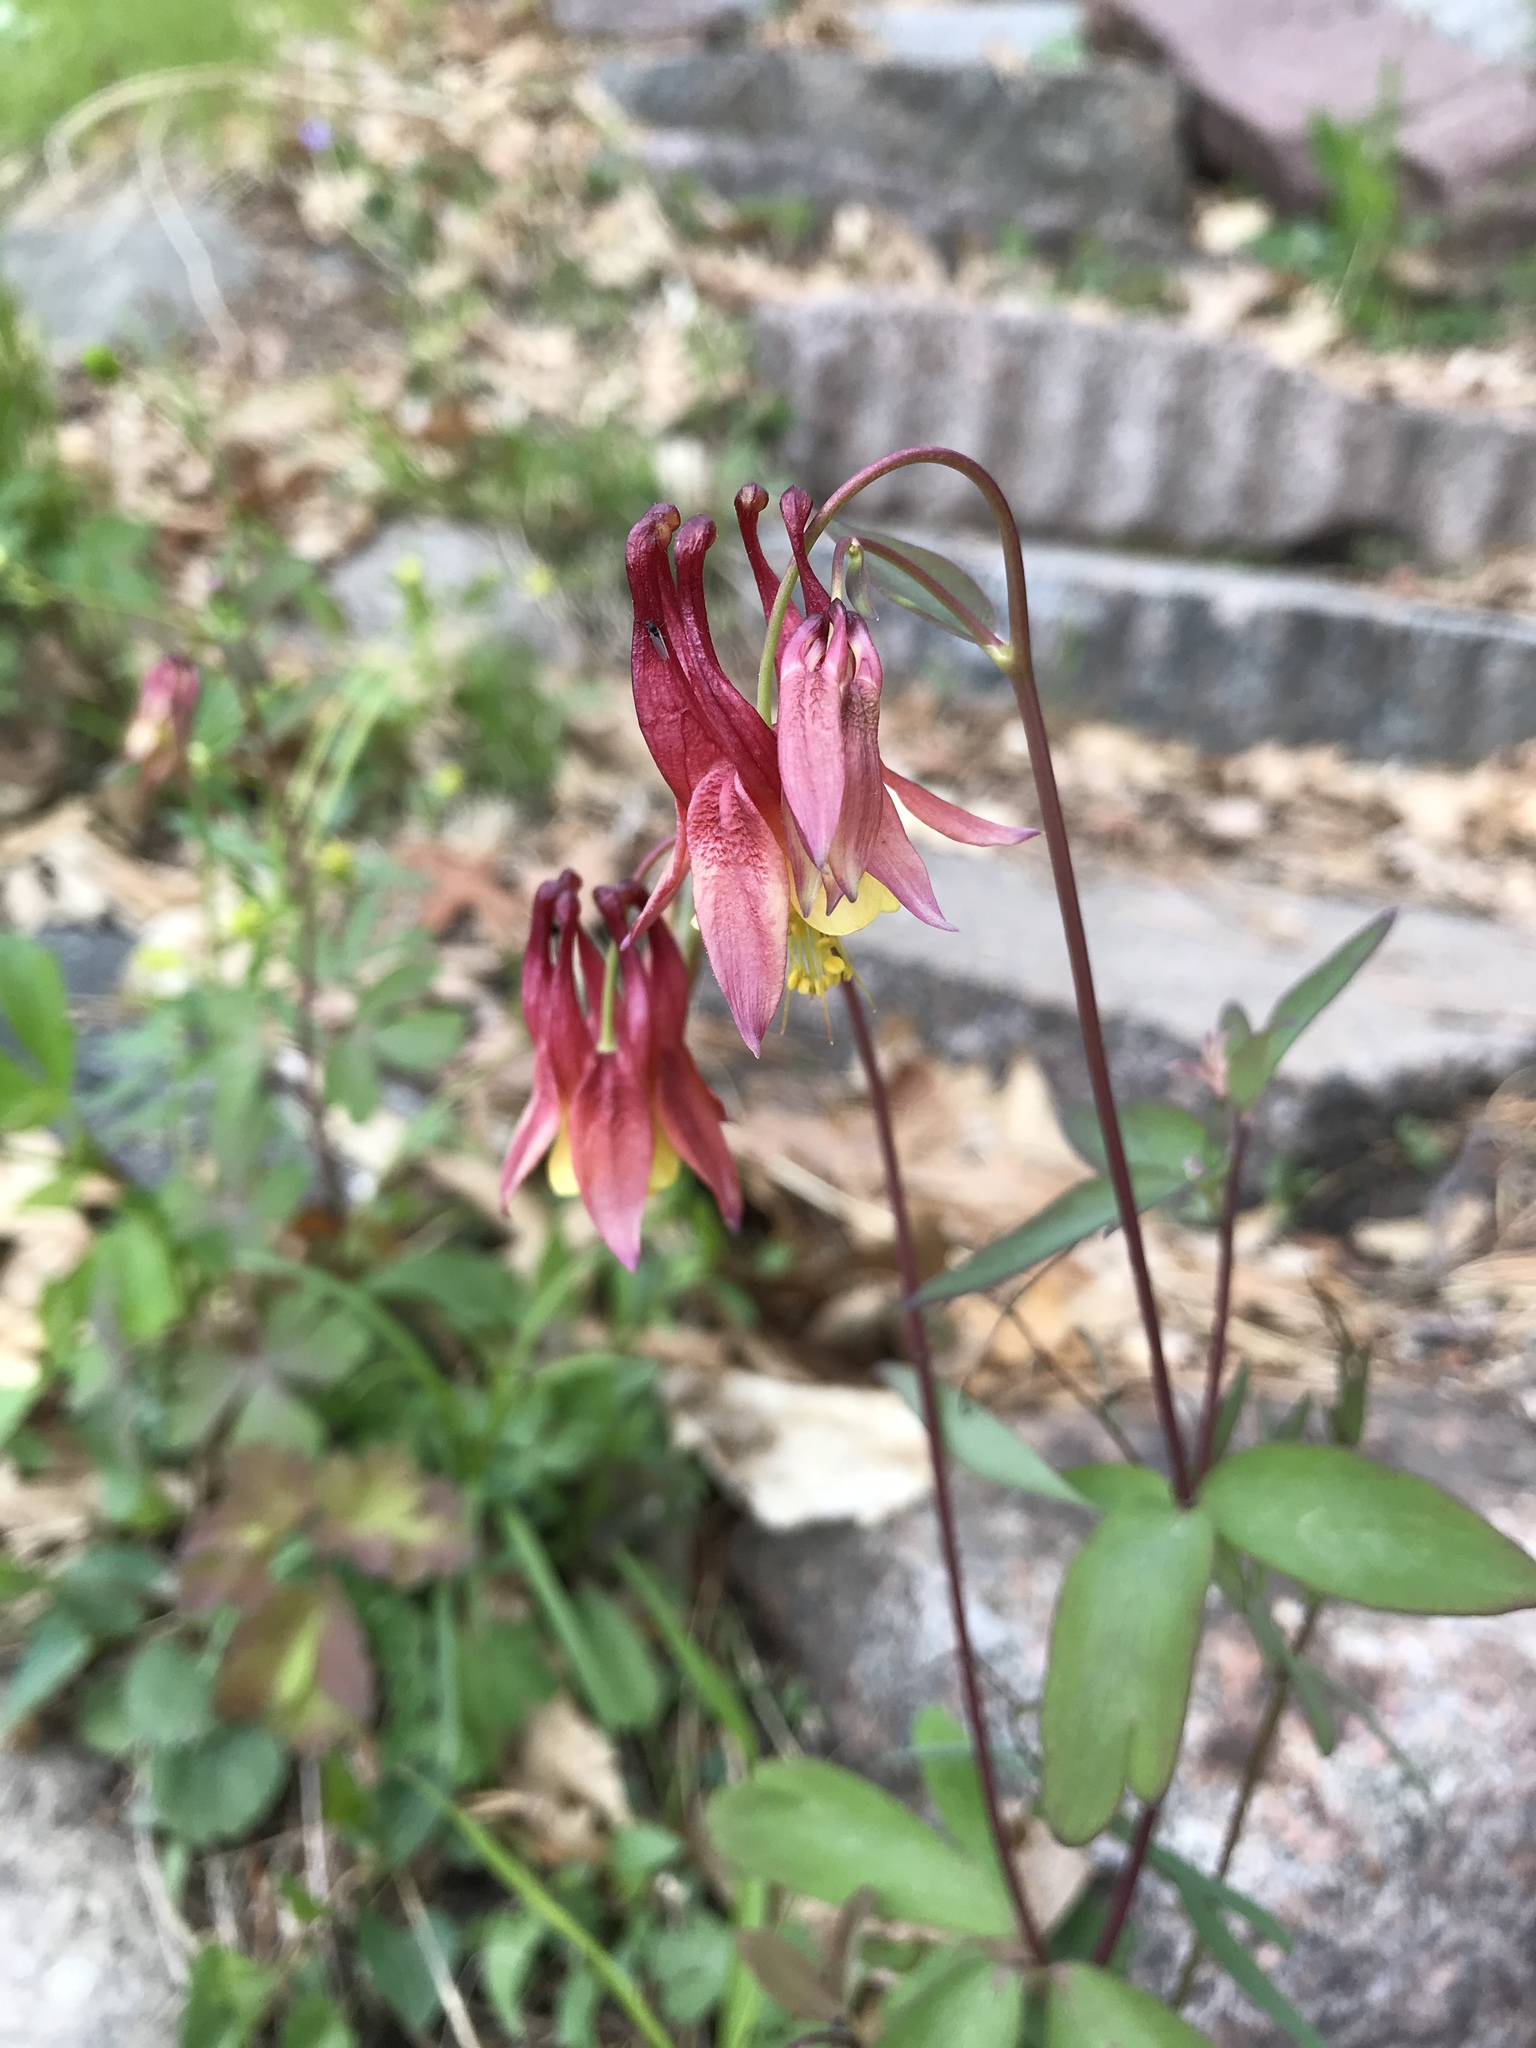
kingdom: Plantae
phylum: Tracheophyta
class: Magnoliopsida
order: Ranunculales
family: Ranunculaceae
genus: Aquilegia
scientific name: Aquilegia canadensis
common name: American columbine
